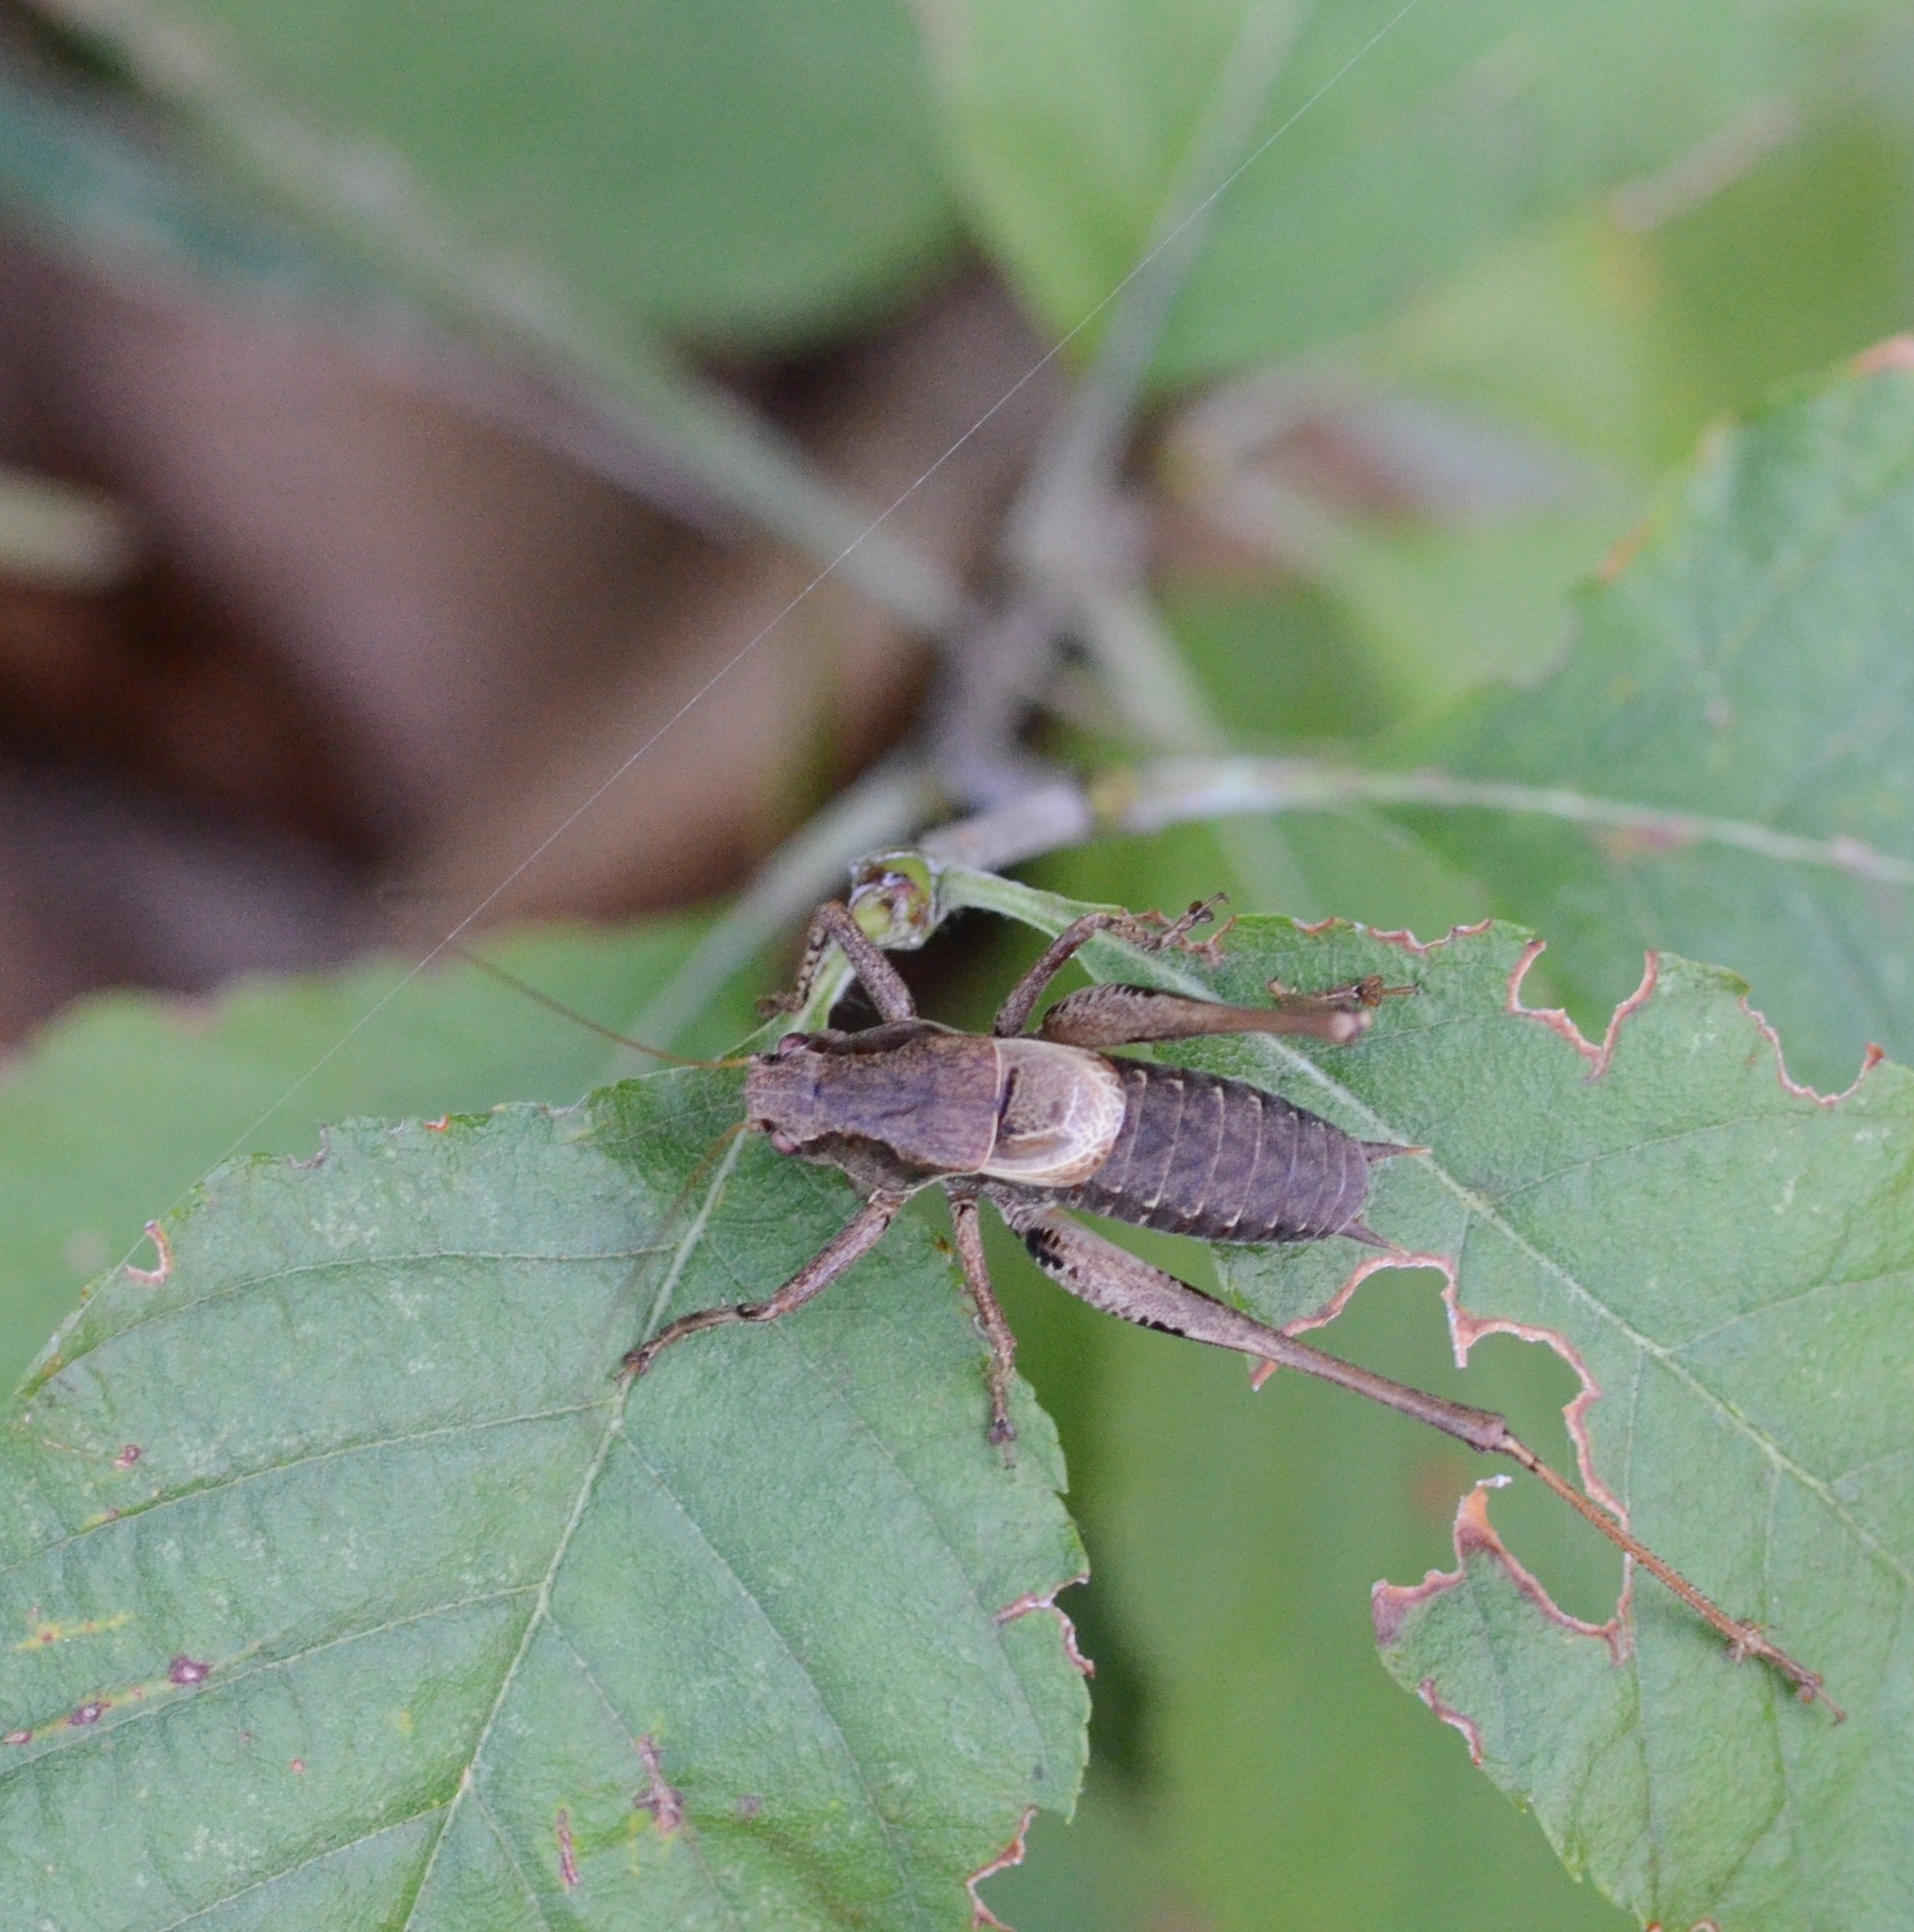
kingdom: Animalia
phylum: Arthropoda
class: Insecta
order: Orthoptera
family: Tettigoniidae
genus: Pholidoptera
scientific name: Pholidoptera griseoaptera
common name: Dark bush-cricket
